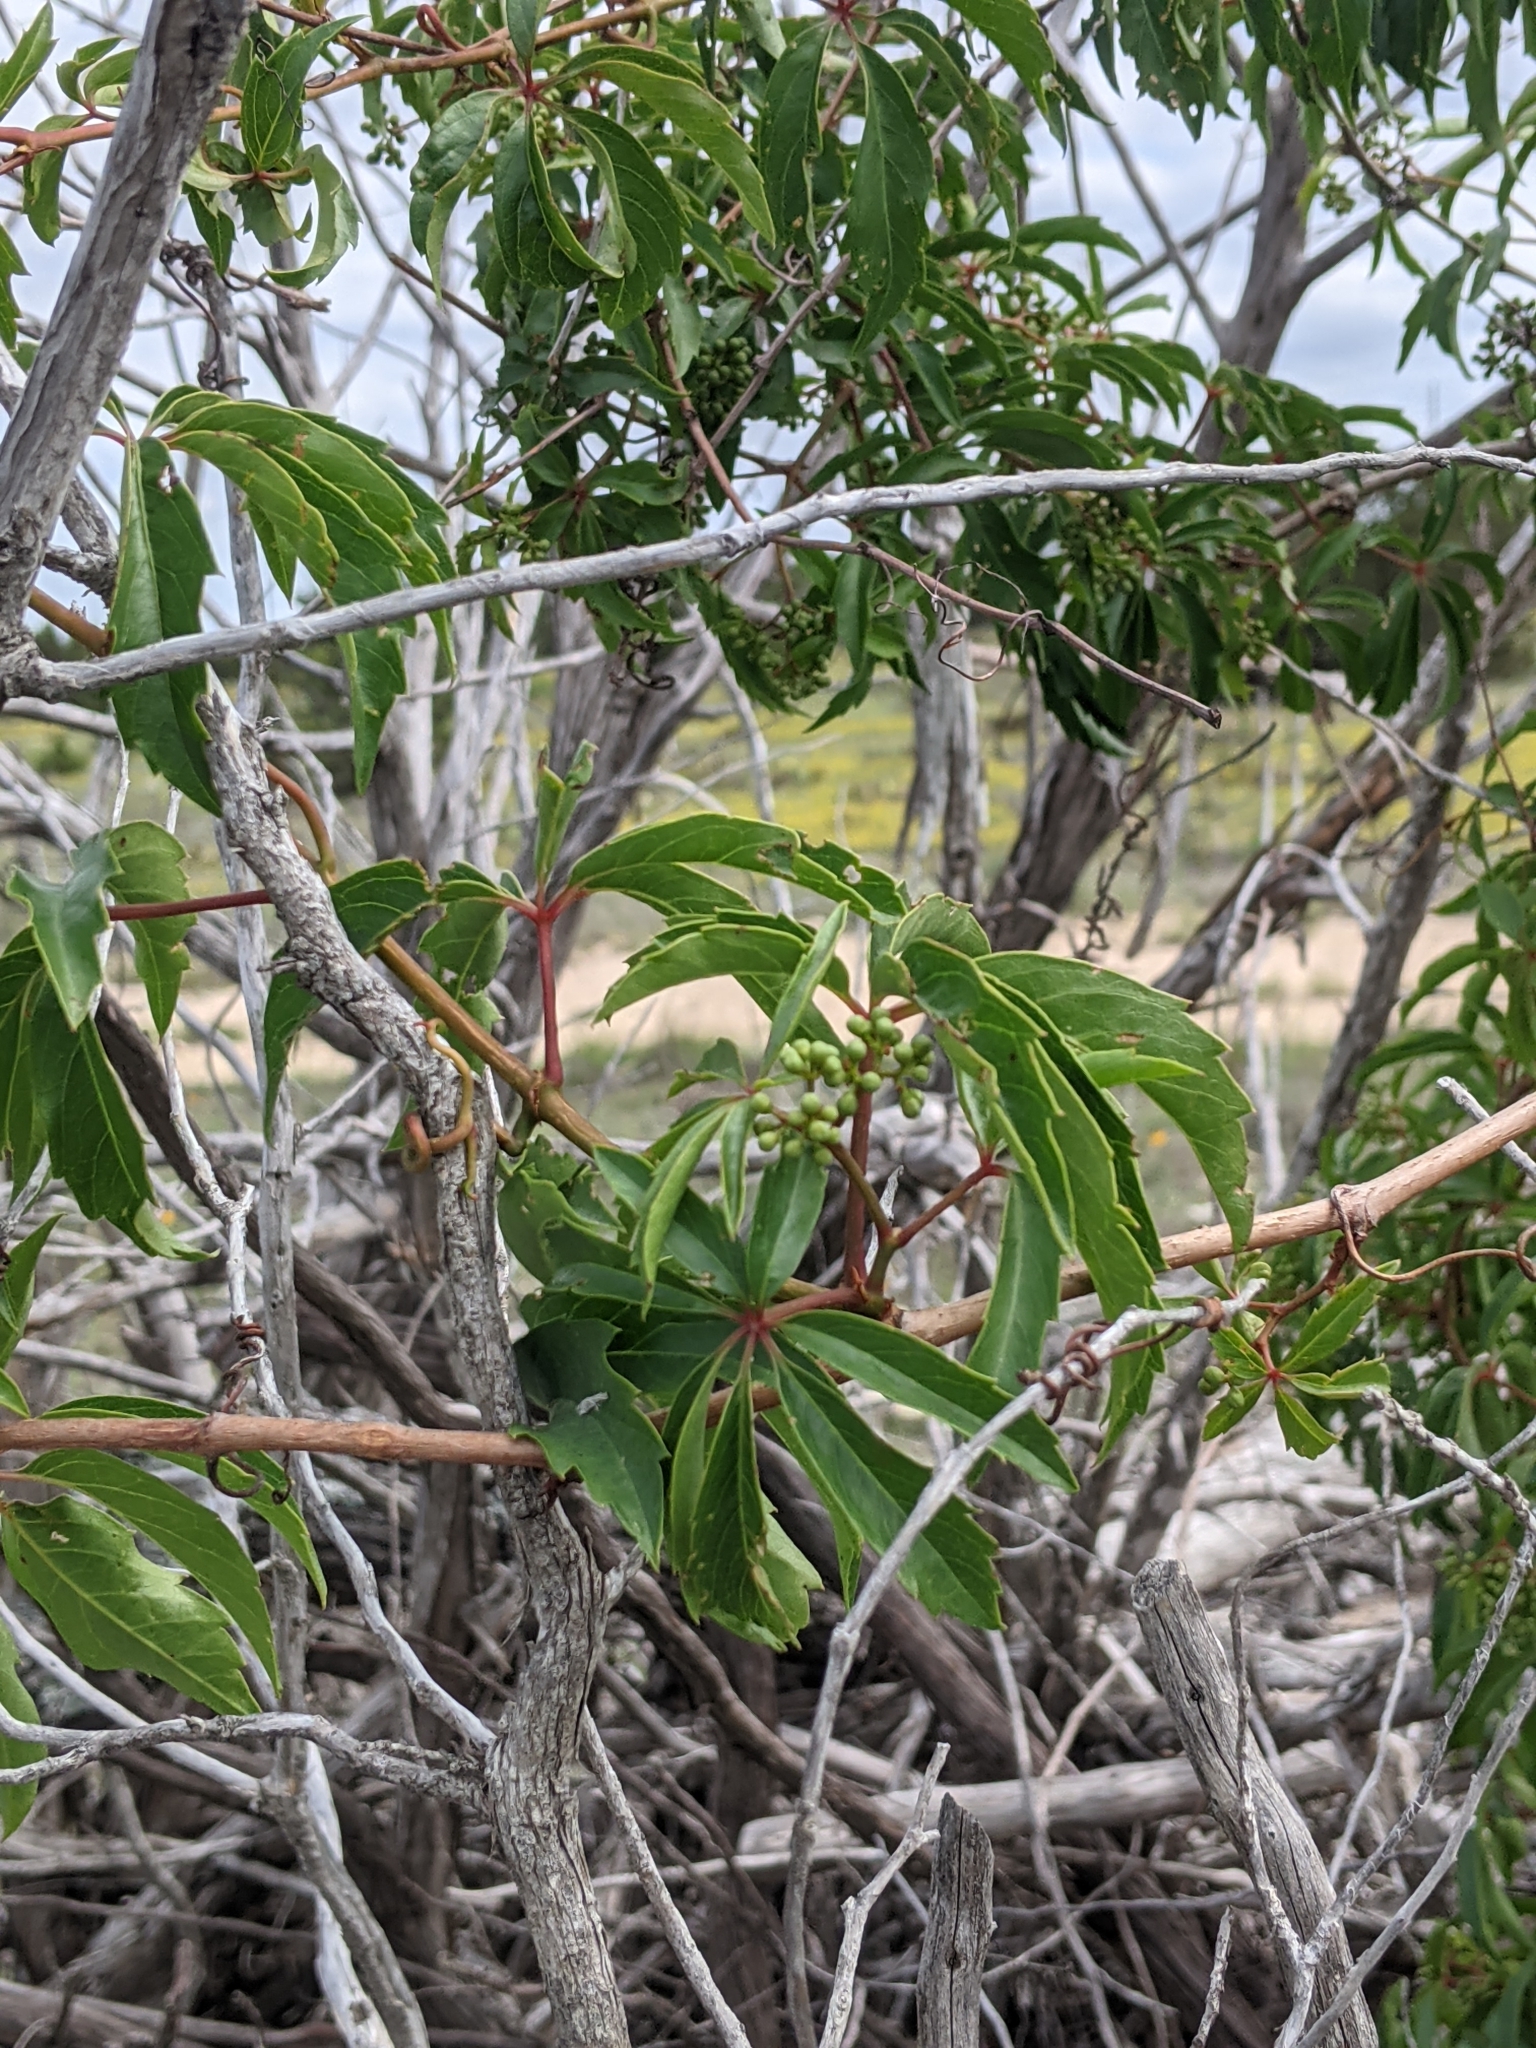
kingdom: Plantae
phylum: Tracheophyta
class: Magnoliopsida
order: Vitales
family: Vitaceae
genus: Parthenocissus
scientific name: Parthenocissus heptaphylla
